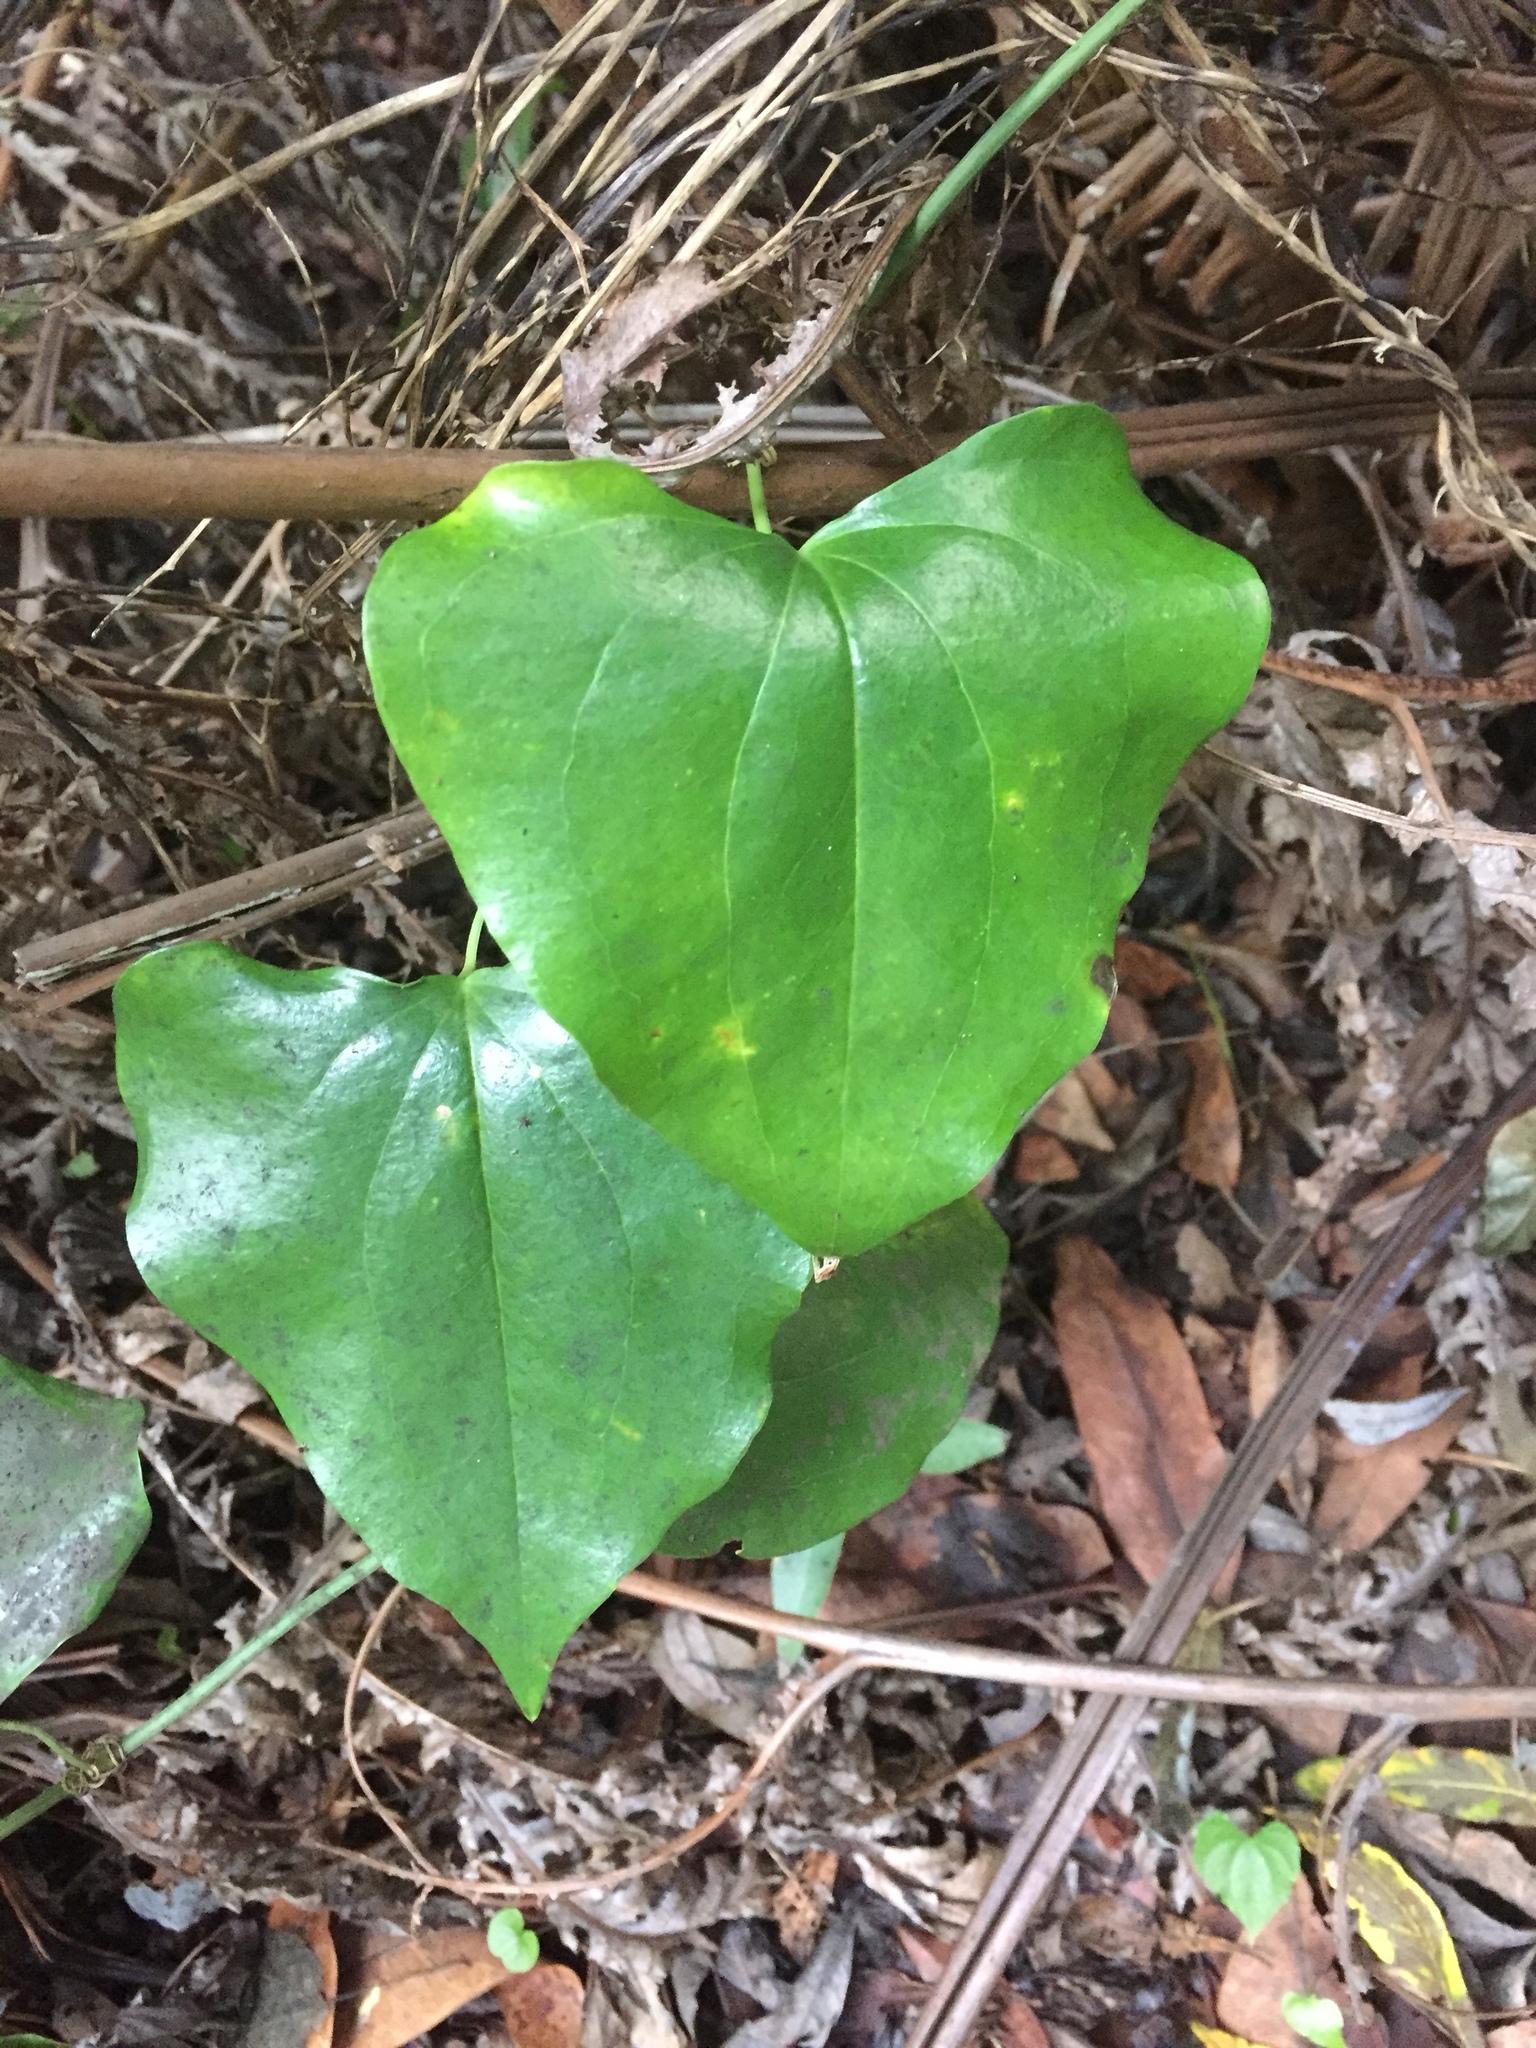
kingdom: Plantae
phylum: Tracheophyta
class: Liliopsida
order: Liliales
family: Smilacaceae
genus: Smilax
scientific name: Smilax canariensis
